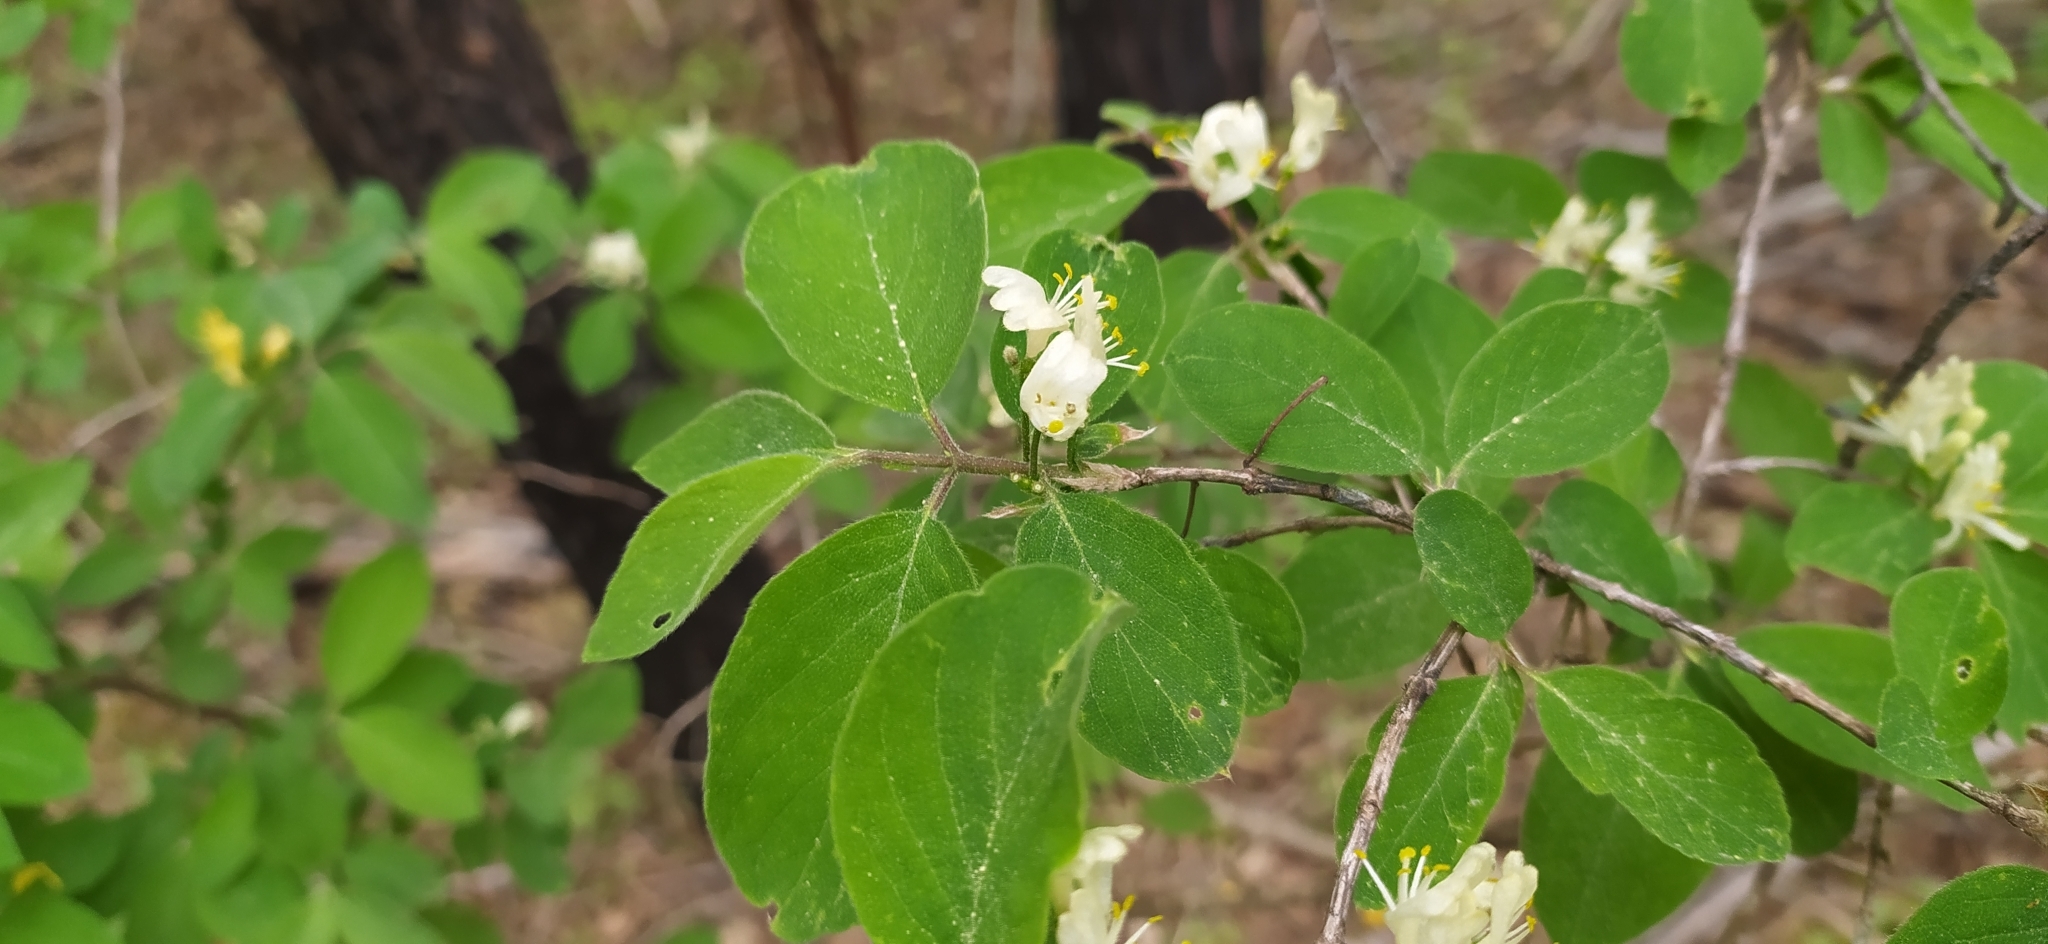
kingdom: Plantae
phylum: Tracheophyta
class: Magnoliopsida
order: Dipsacales
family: Caprifoliaceae
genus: Lonicera
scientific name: Lonicera xylosteum
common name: Fly honeysuckle
